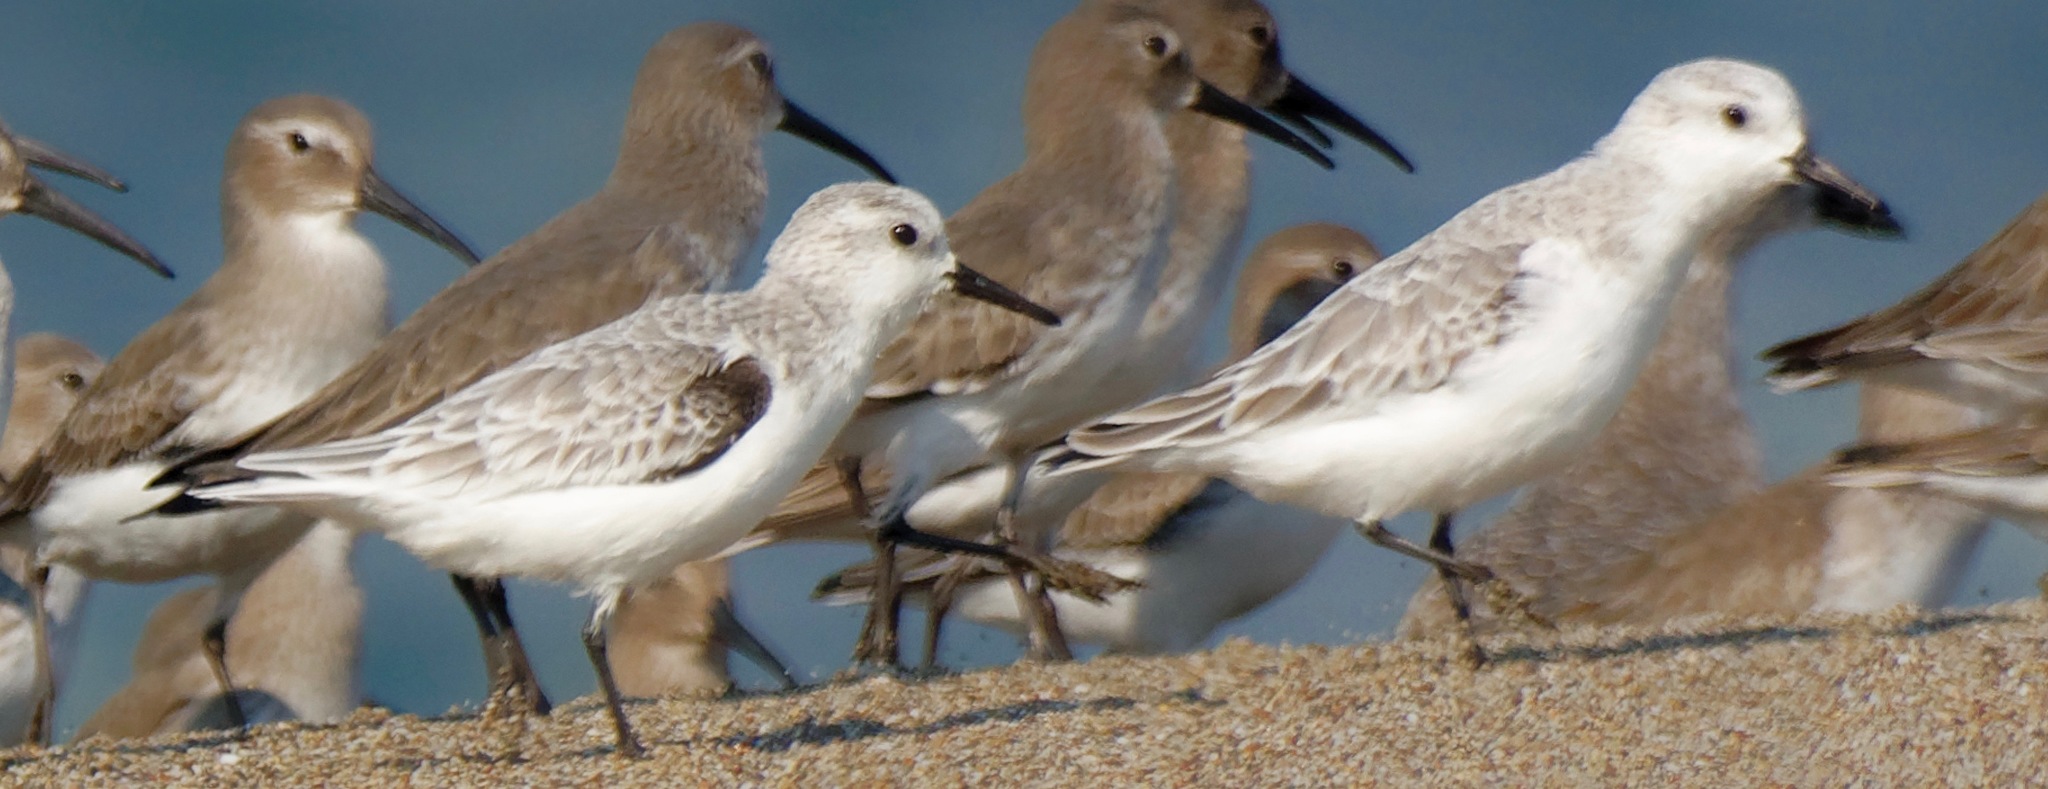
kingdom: Animalia
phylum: Chordata
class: Aves
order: Charadriiformes
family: Scolopacidae
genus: Calidris
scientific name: Calidris alba
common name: Sanderling
